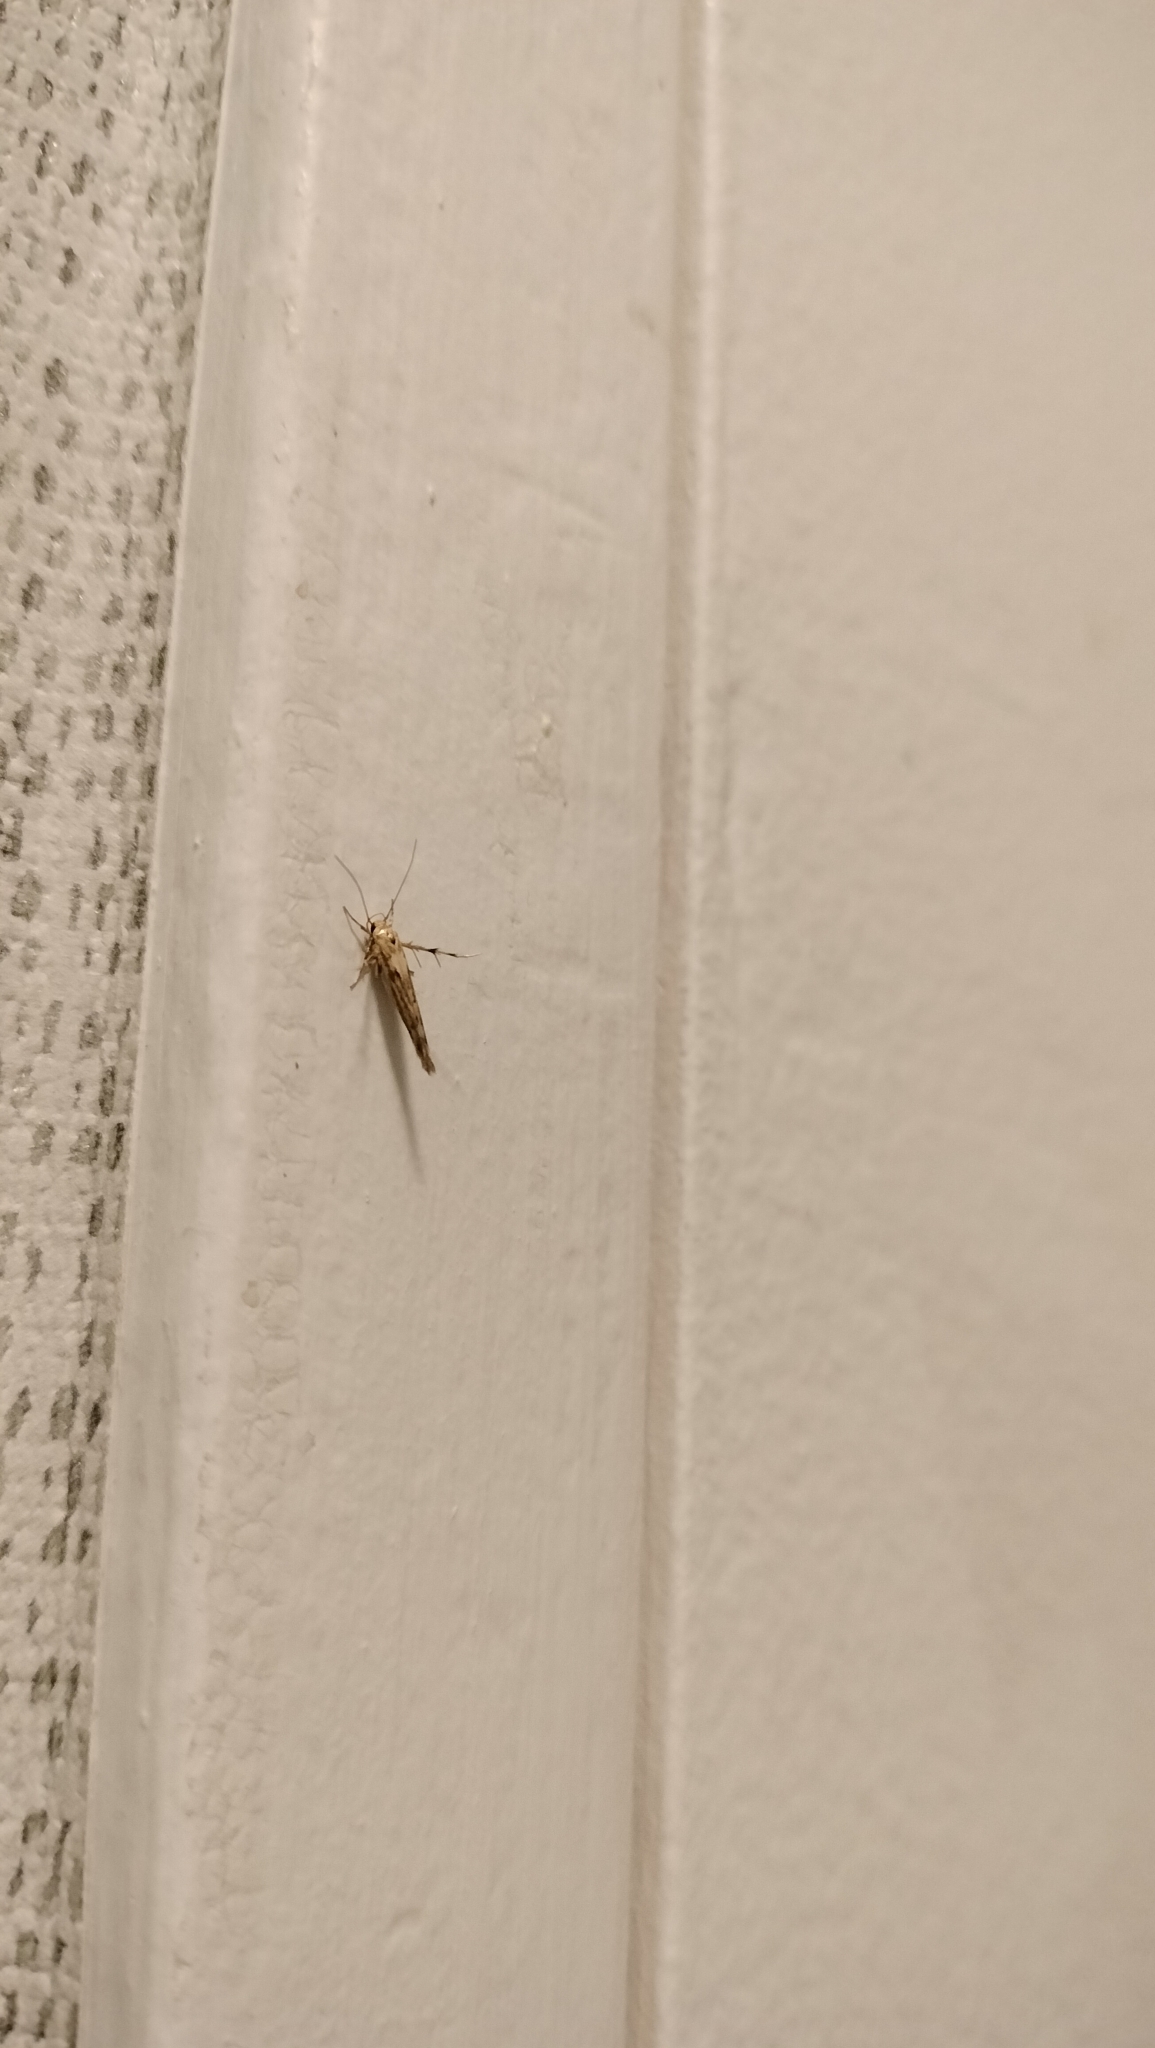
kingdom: Animalia
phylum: Arthropoda
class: Insecta
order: Lepidoptera
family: Stathmopodidae
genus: Stathmopoda
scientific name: Stathmopoda plumbiflua
